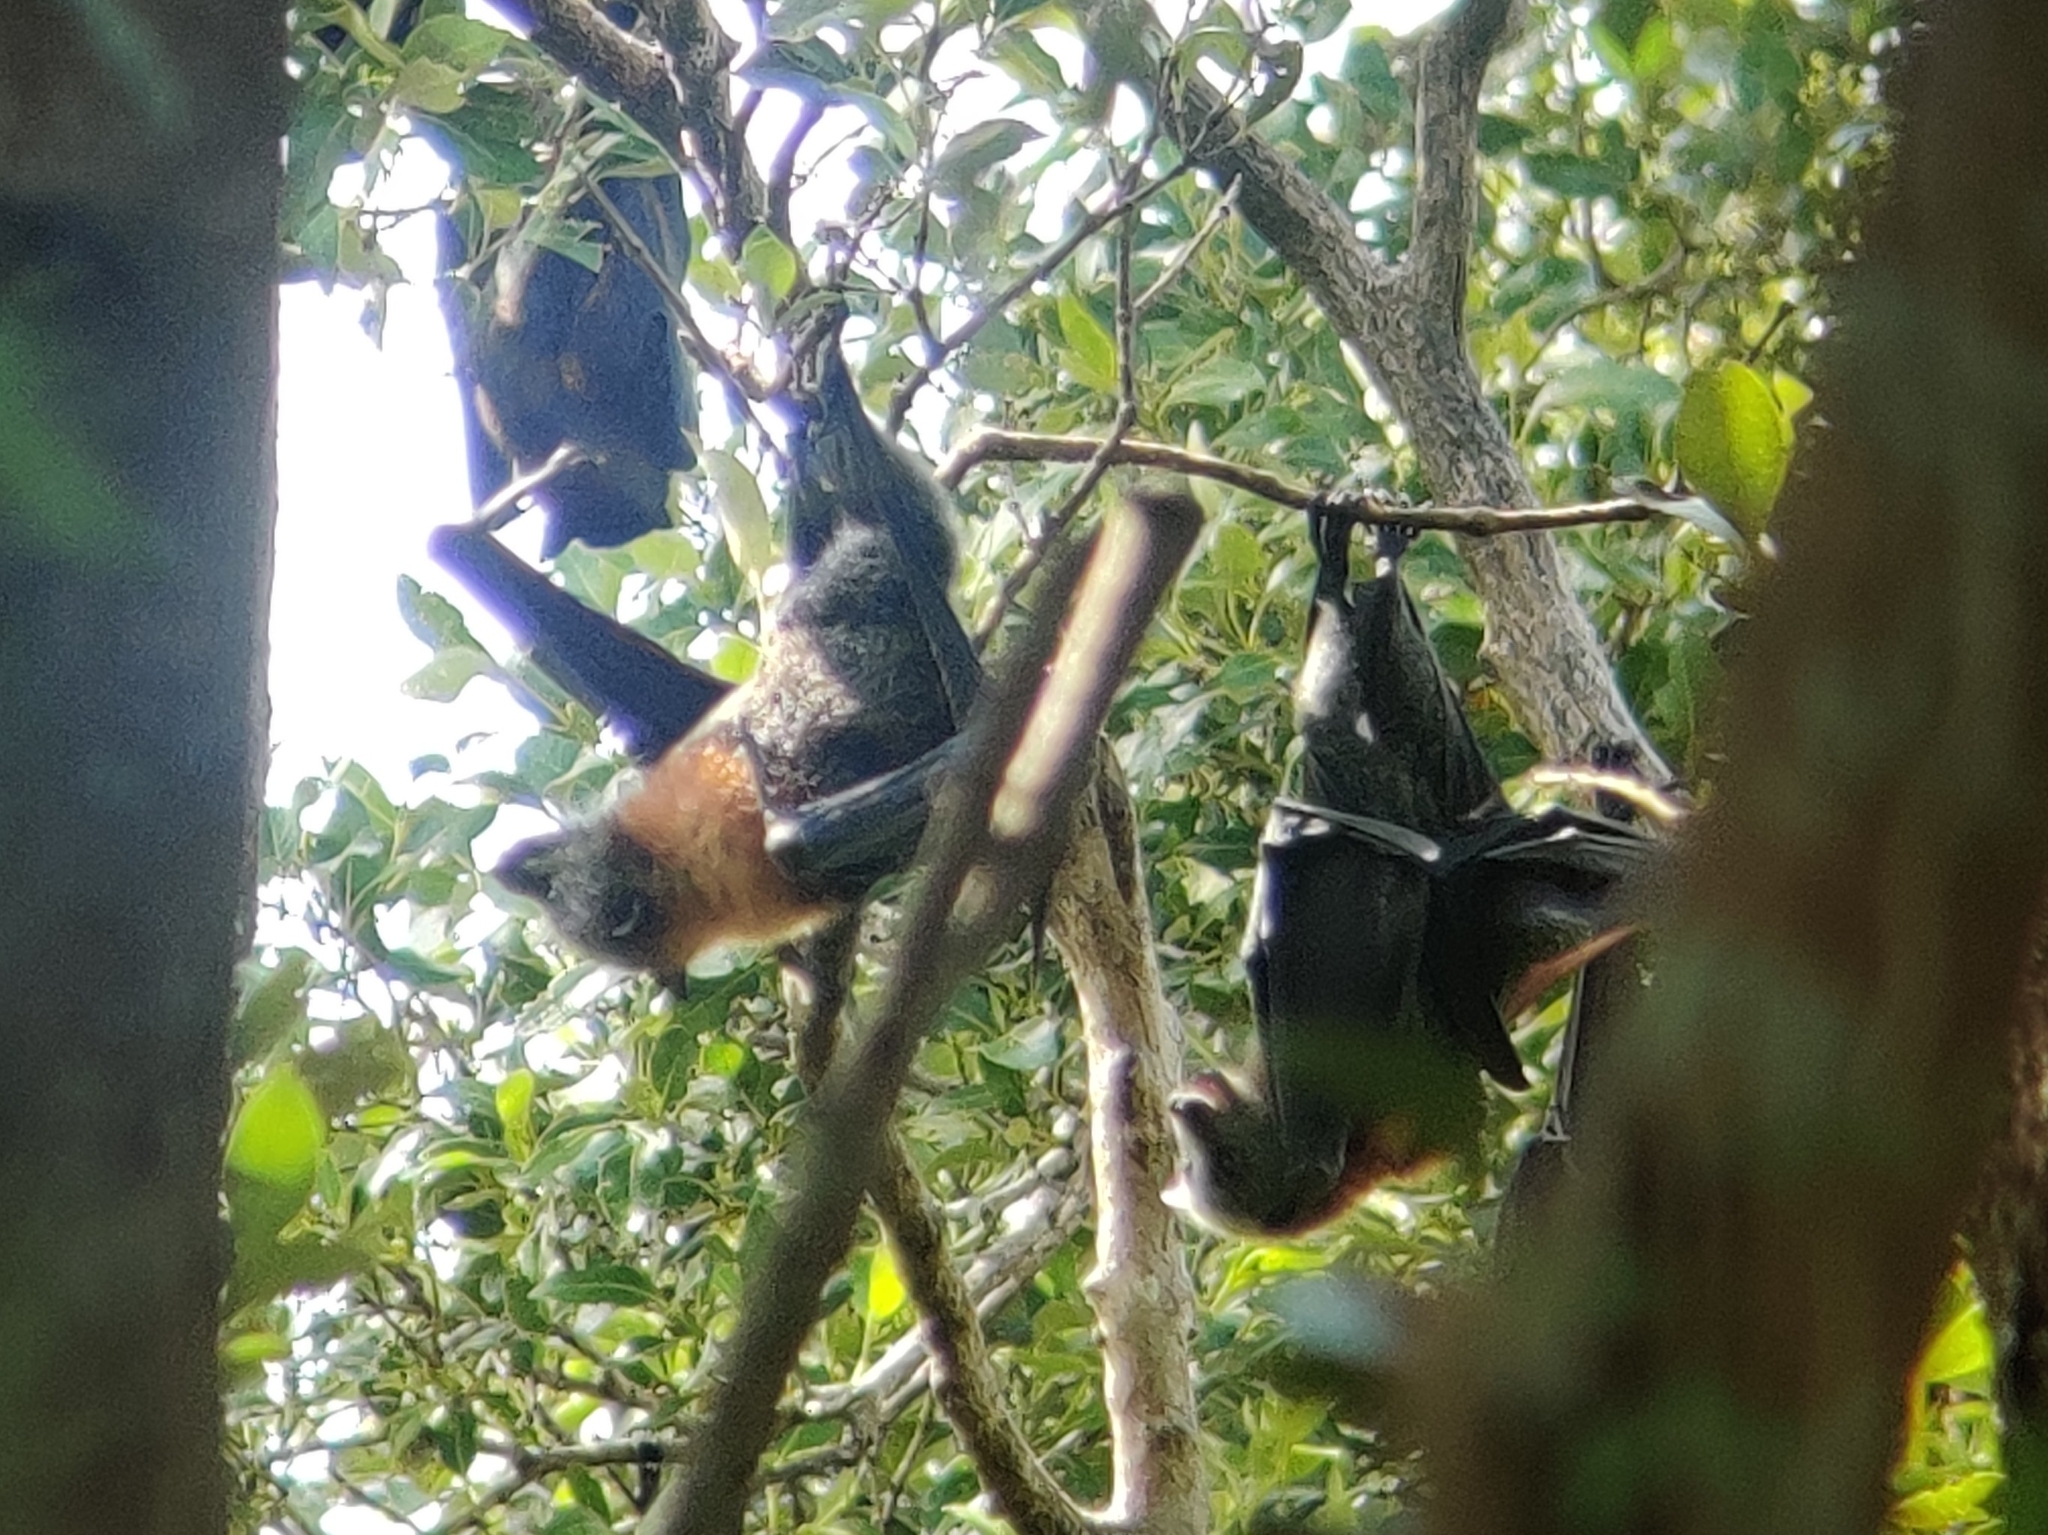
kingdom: Animalia
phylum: Chordata
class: Mammalia
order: Chiroptera
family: Pteropodidae
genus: Pteropus
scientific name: Pteropus poliocephalus
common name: Gray-headed flying fox
